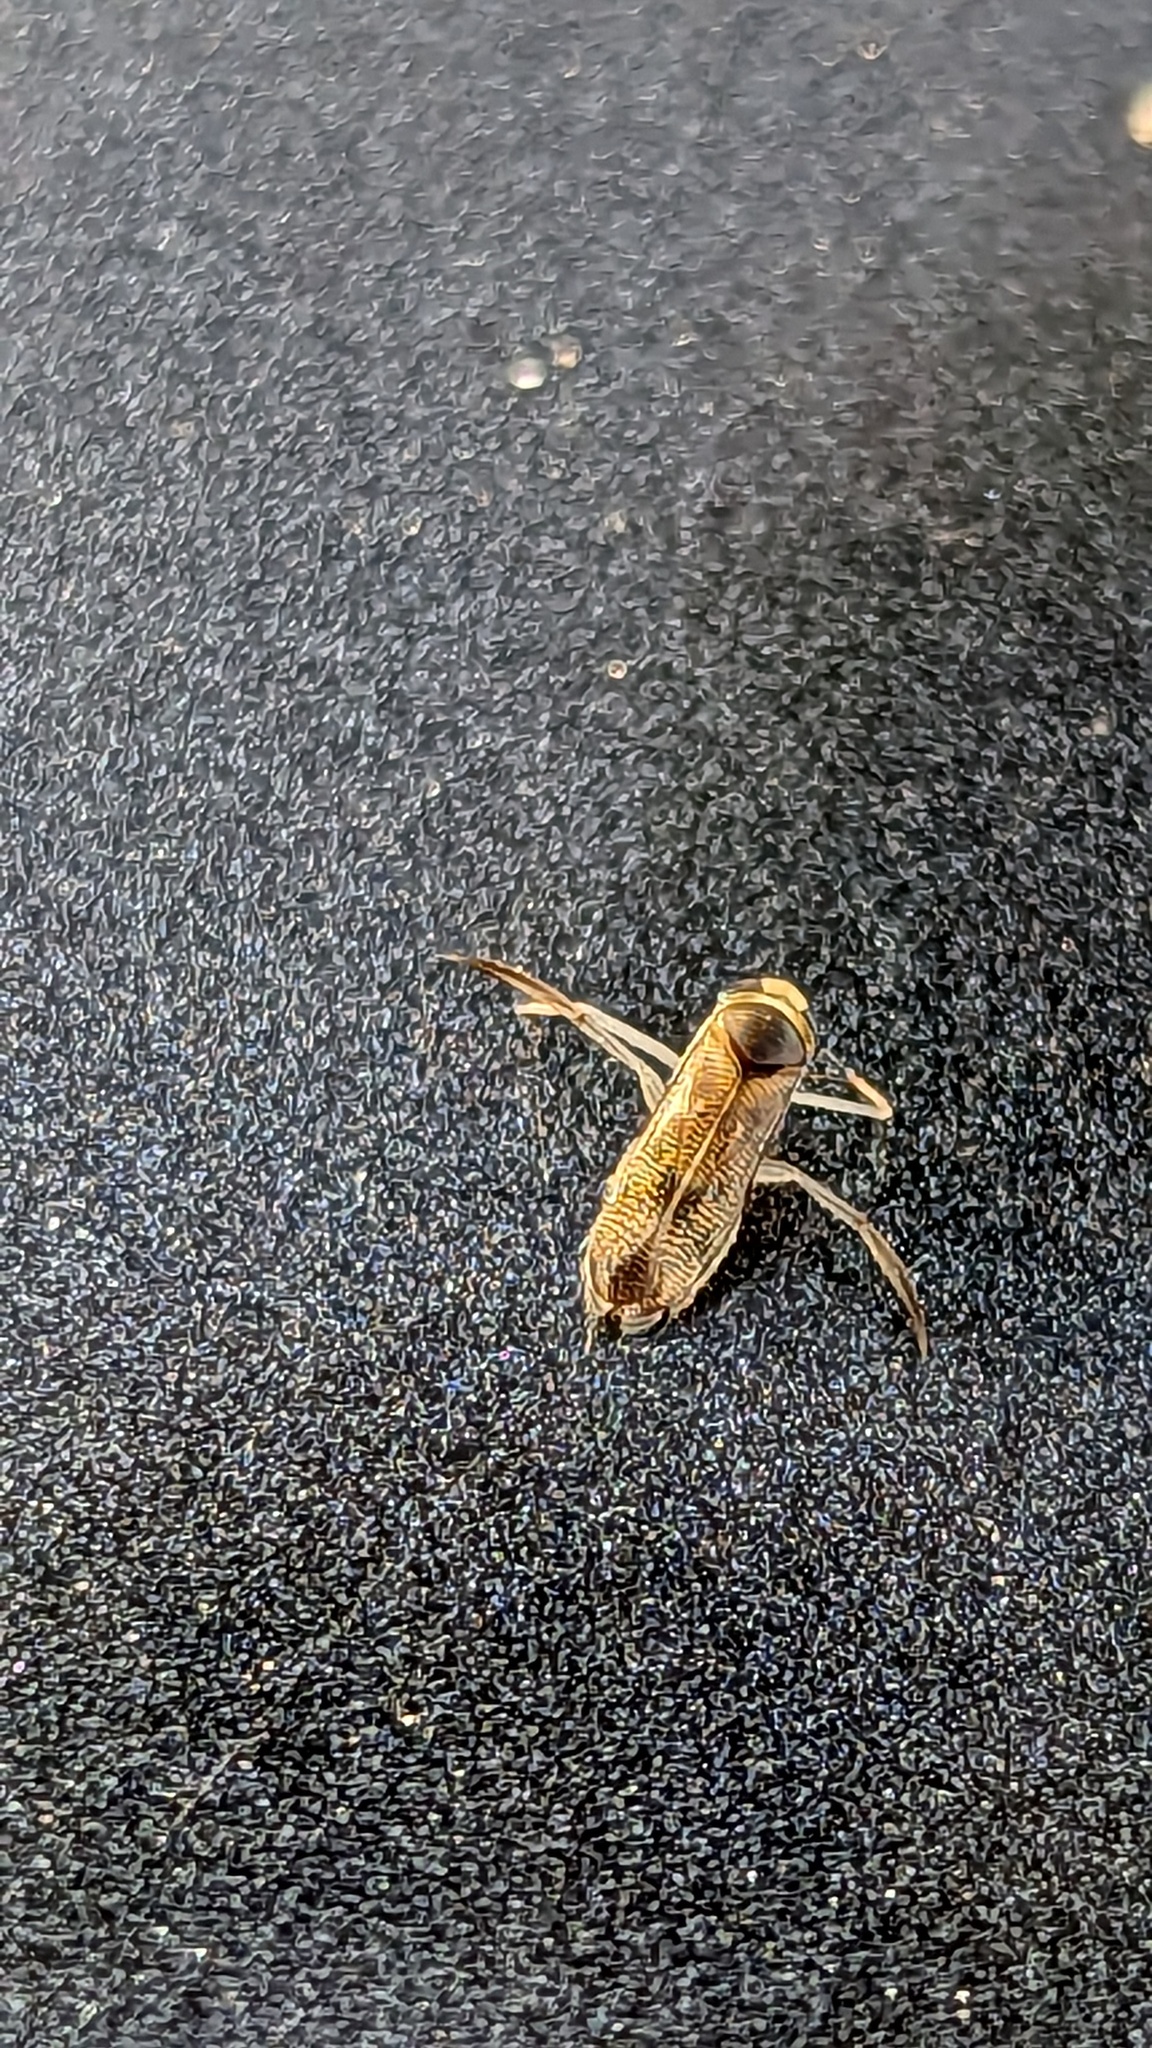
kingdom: Animalia
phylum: Arthropoda
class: Insecta
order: Hemiptera
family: Corixidae
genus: Trichocorixa
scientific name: Trichocorixa
